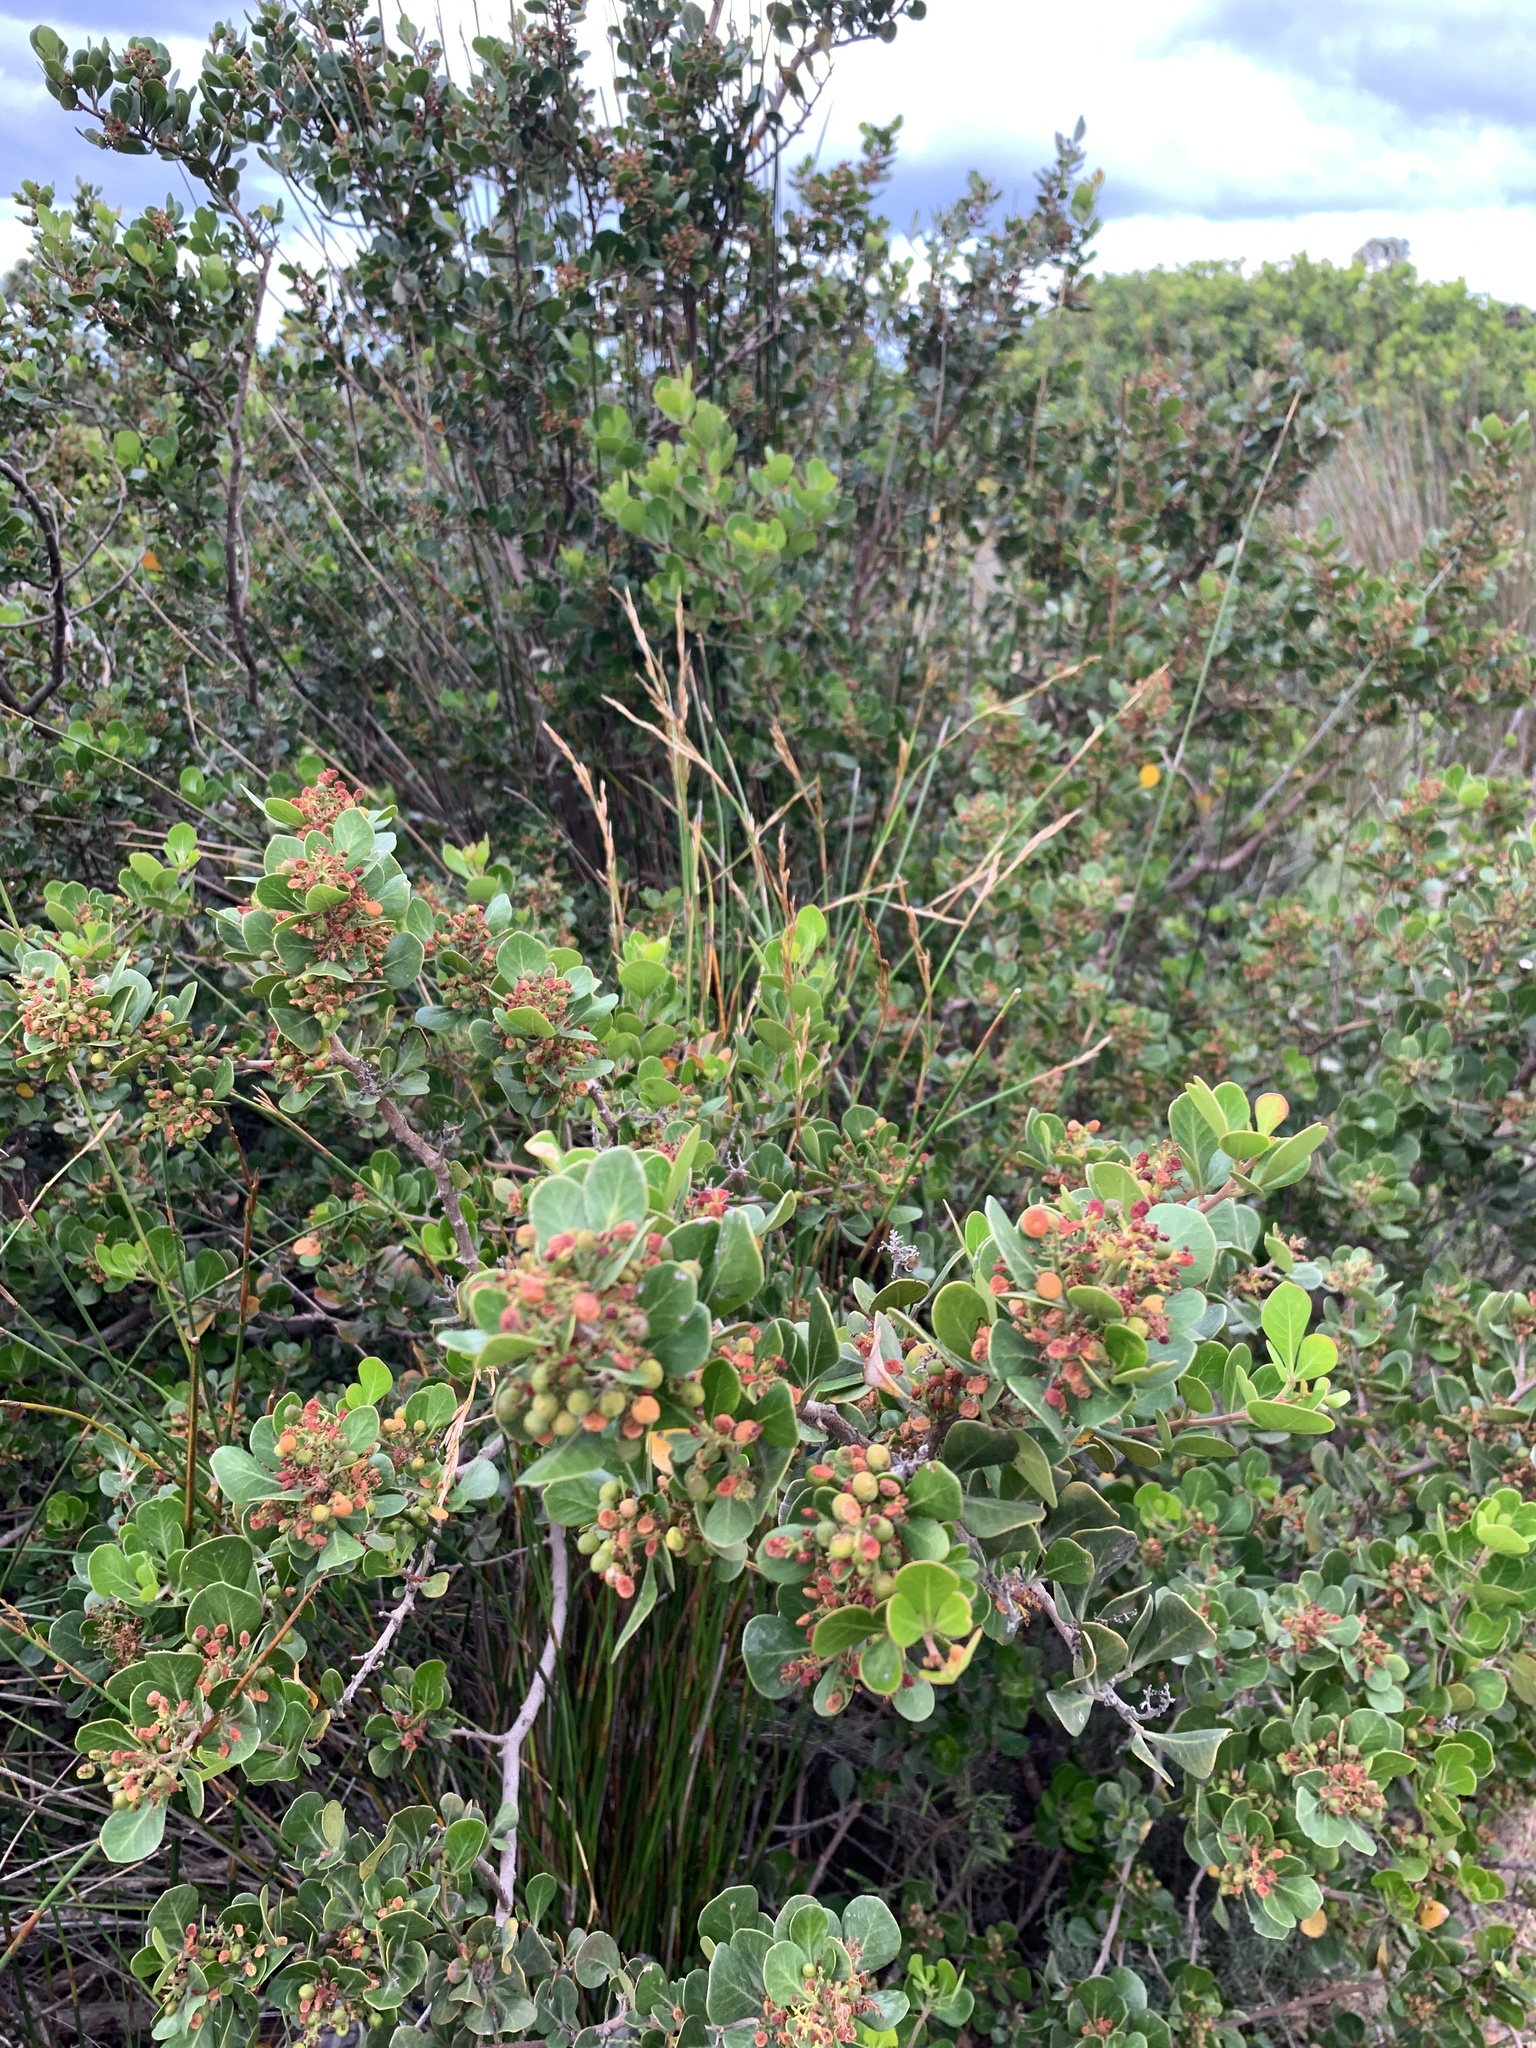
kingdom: Plantae
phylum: Tracheophyta
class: Magnoliopsida
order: Sapindales
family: Anacardiaceae
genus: Searsia
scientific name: Searsia glauca
